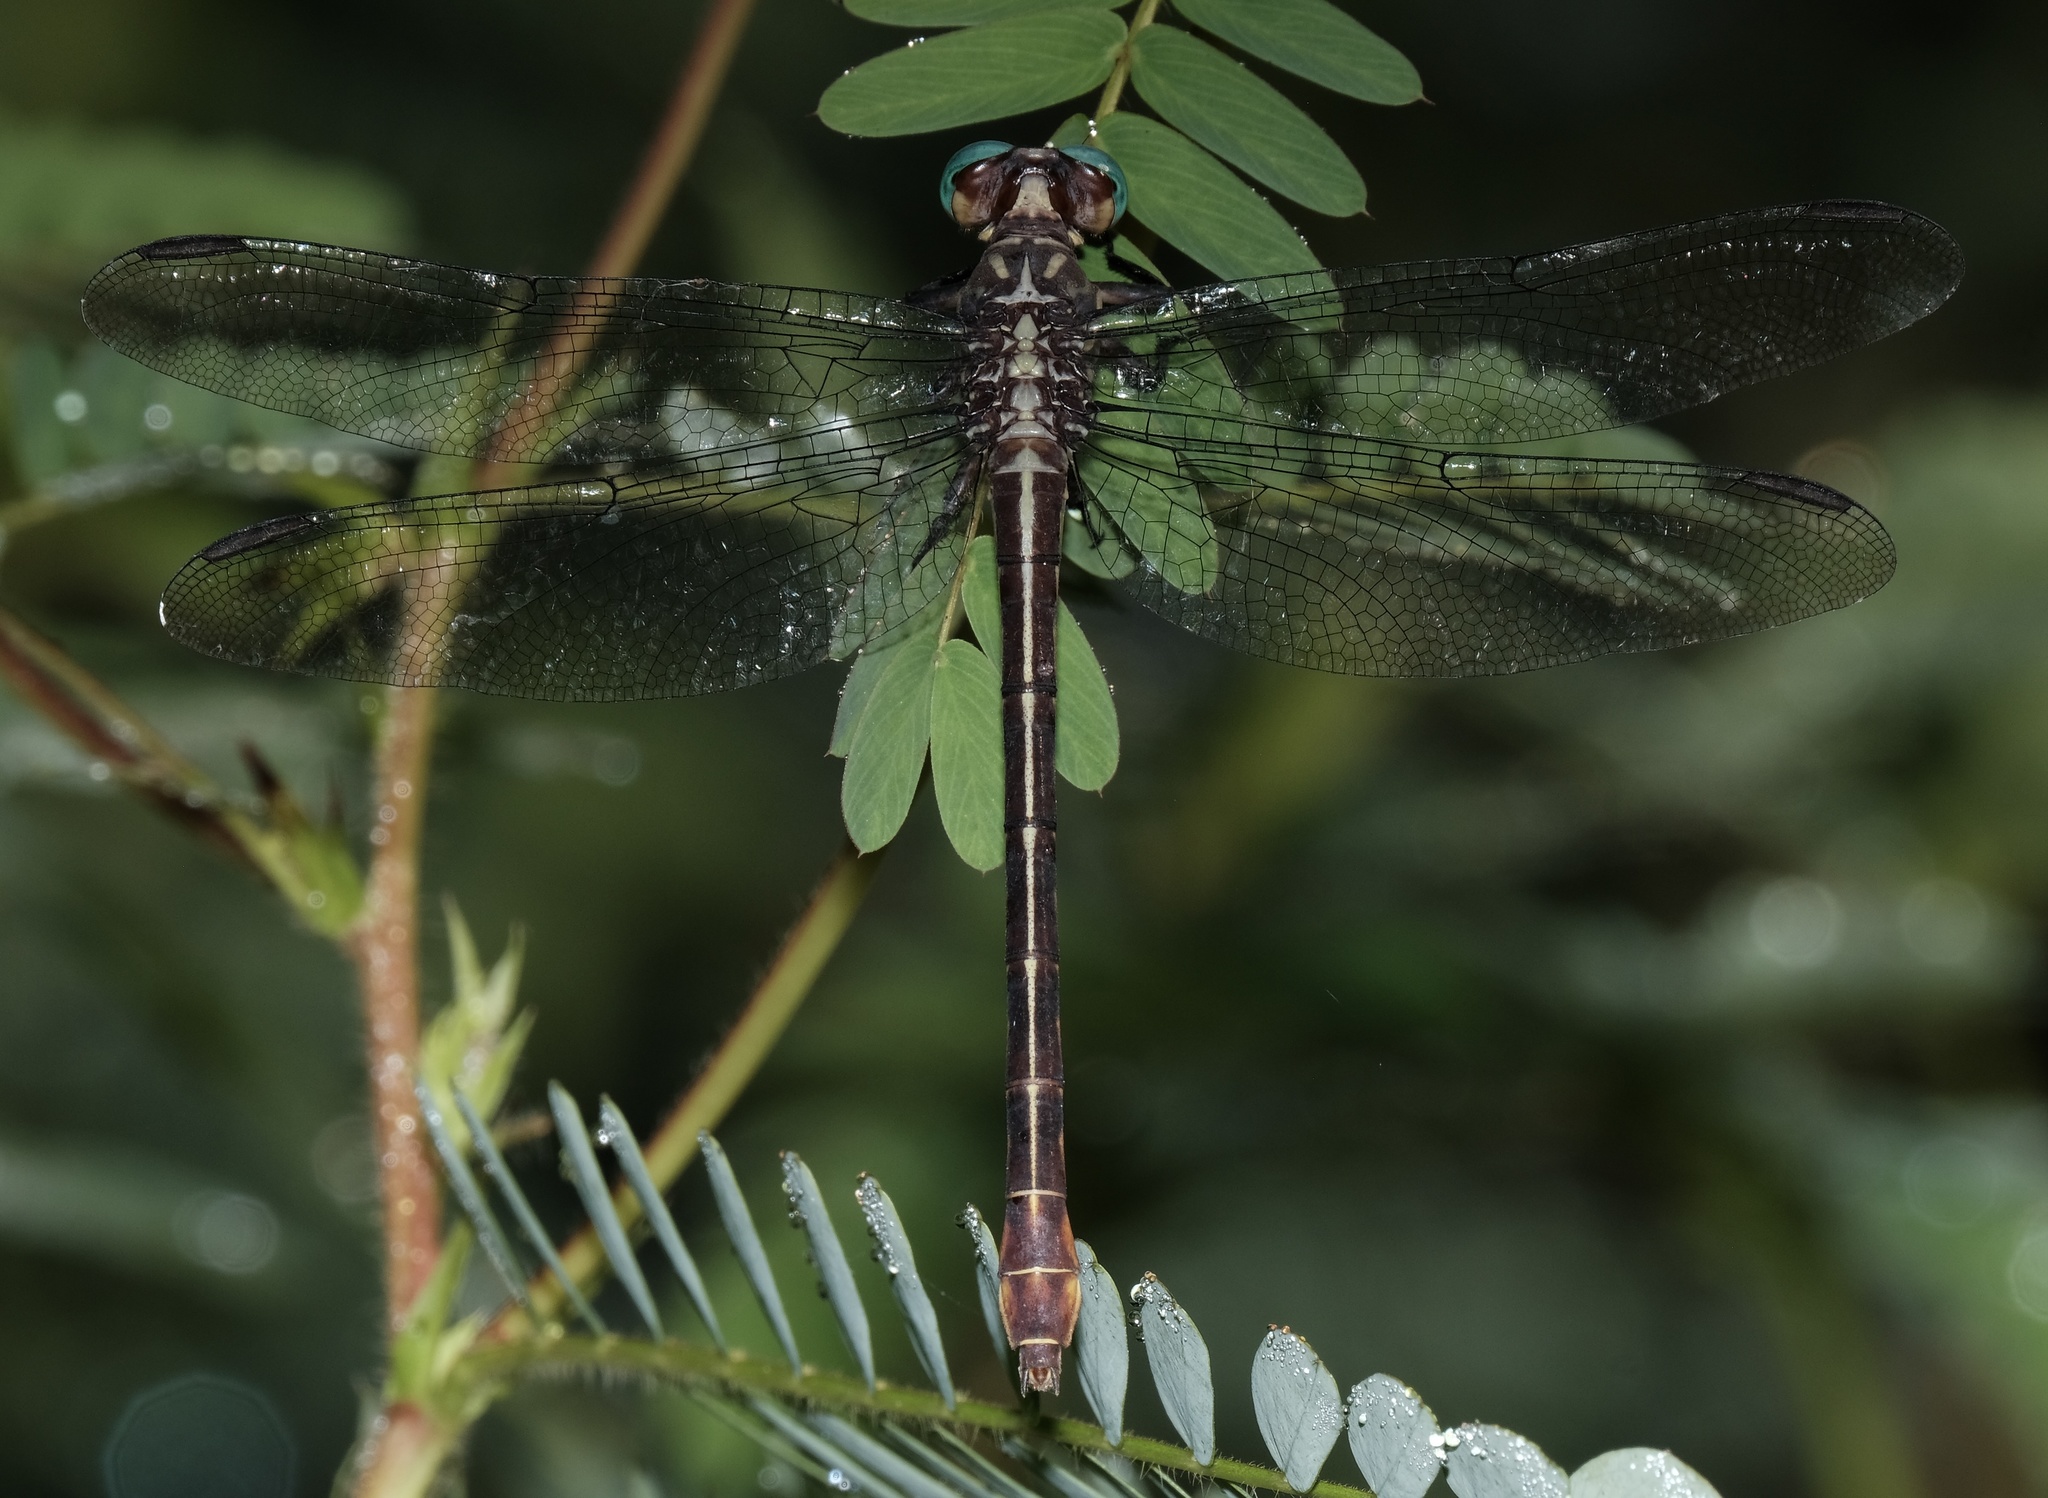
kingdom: Animalia
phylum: Arthropoda
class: Insecta
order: Odonata
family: Gomphidae
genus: Stylurus
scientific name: Stylurus laurae
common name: Laura's clubtail
